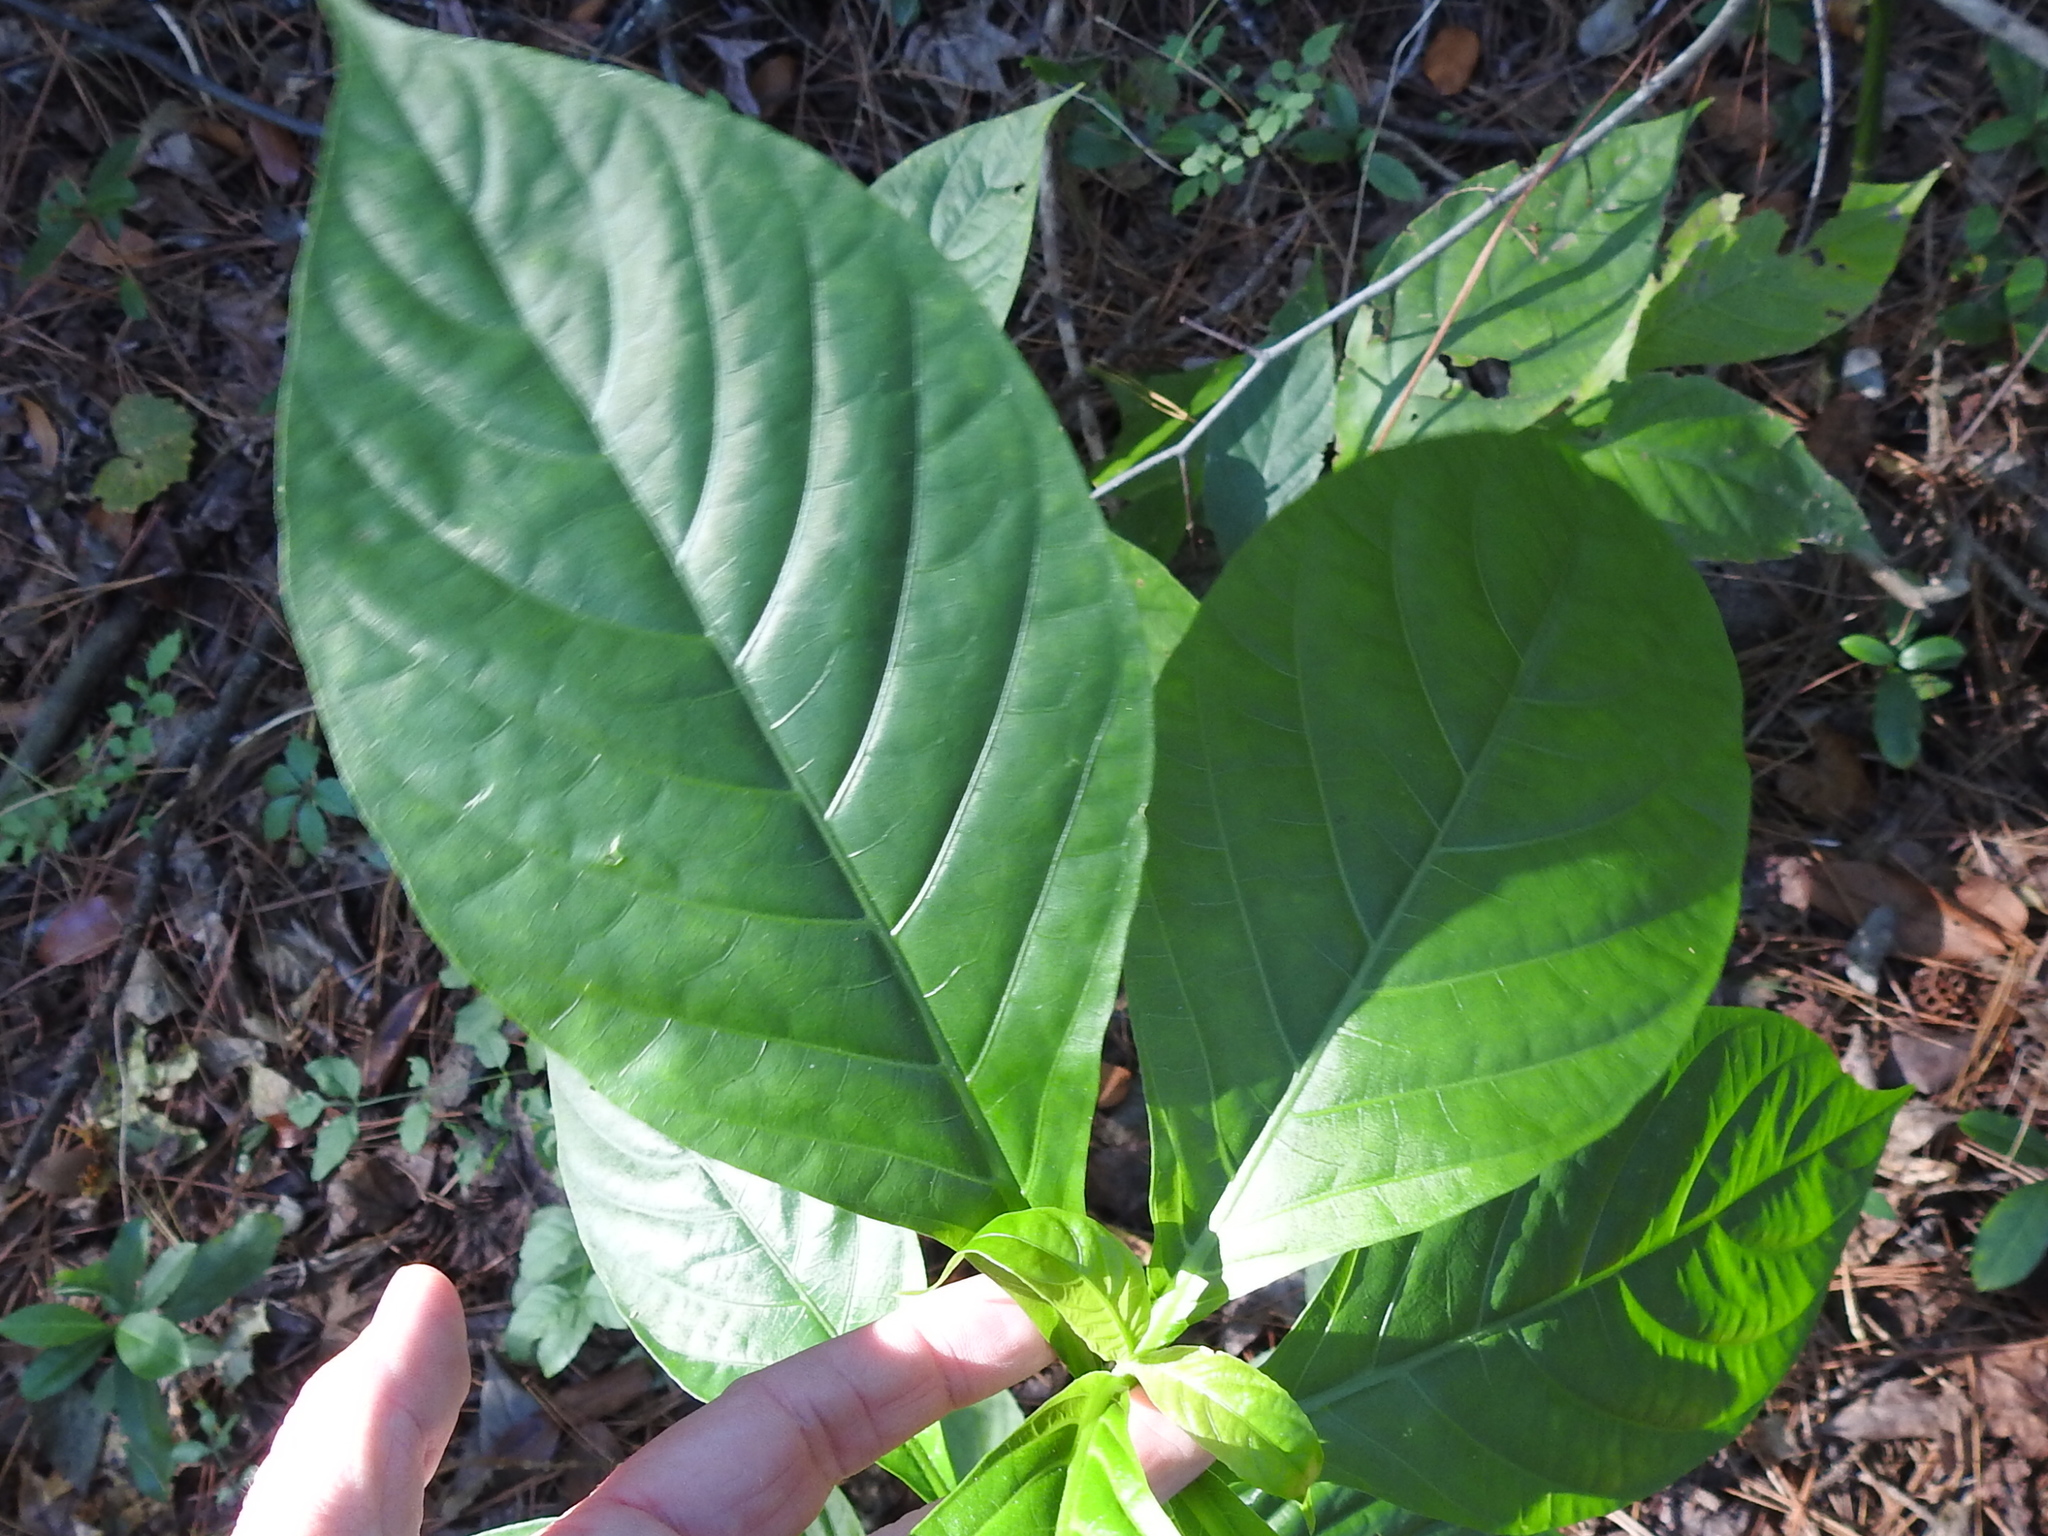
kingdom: Plantae
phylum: Tracheophyta
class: Magnoliopsida
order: Lamiales
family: Acanthaceae
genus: Odontonema
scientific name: Odontonema tubaeforme
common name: Firespike
